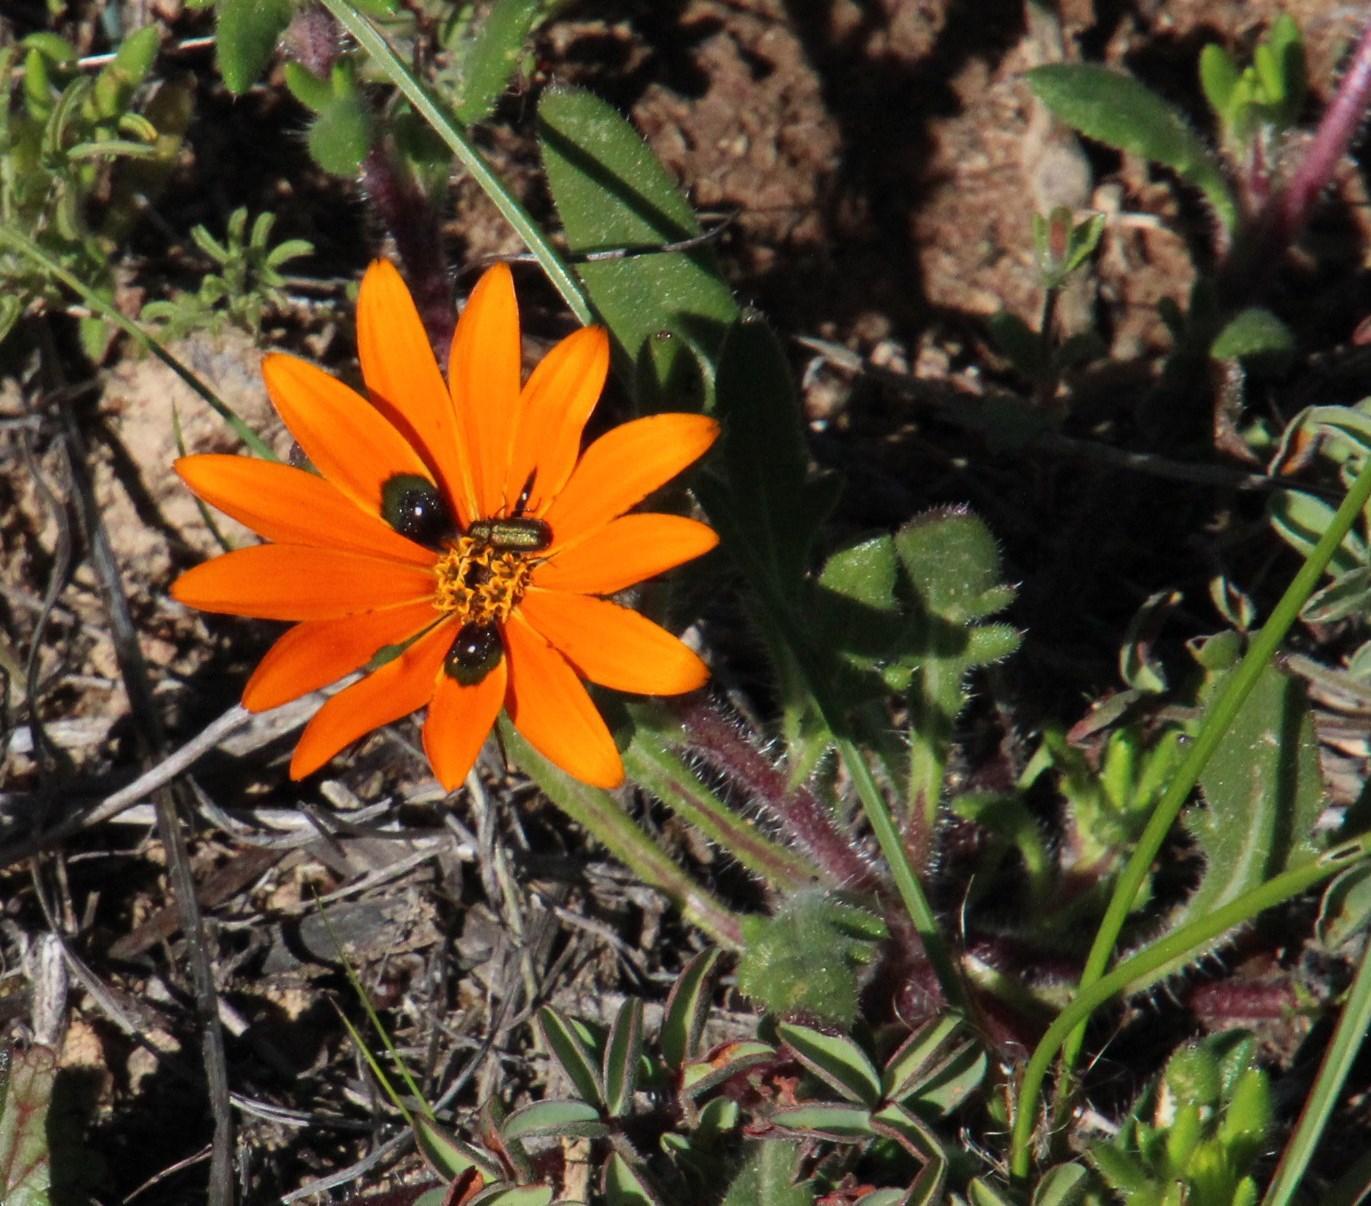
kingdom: Plantae
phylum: Tracheophyta
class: Magnoliopsida
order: Asterales
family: Asteraceae
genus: Gorteria
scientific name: Gorteria diffusa
